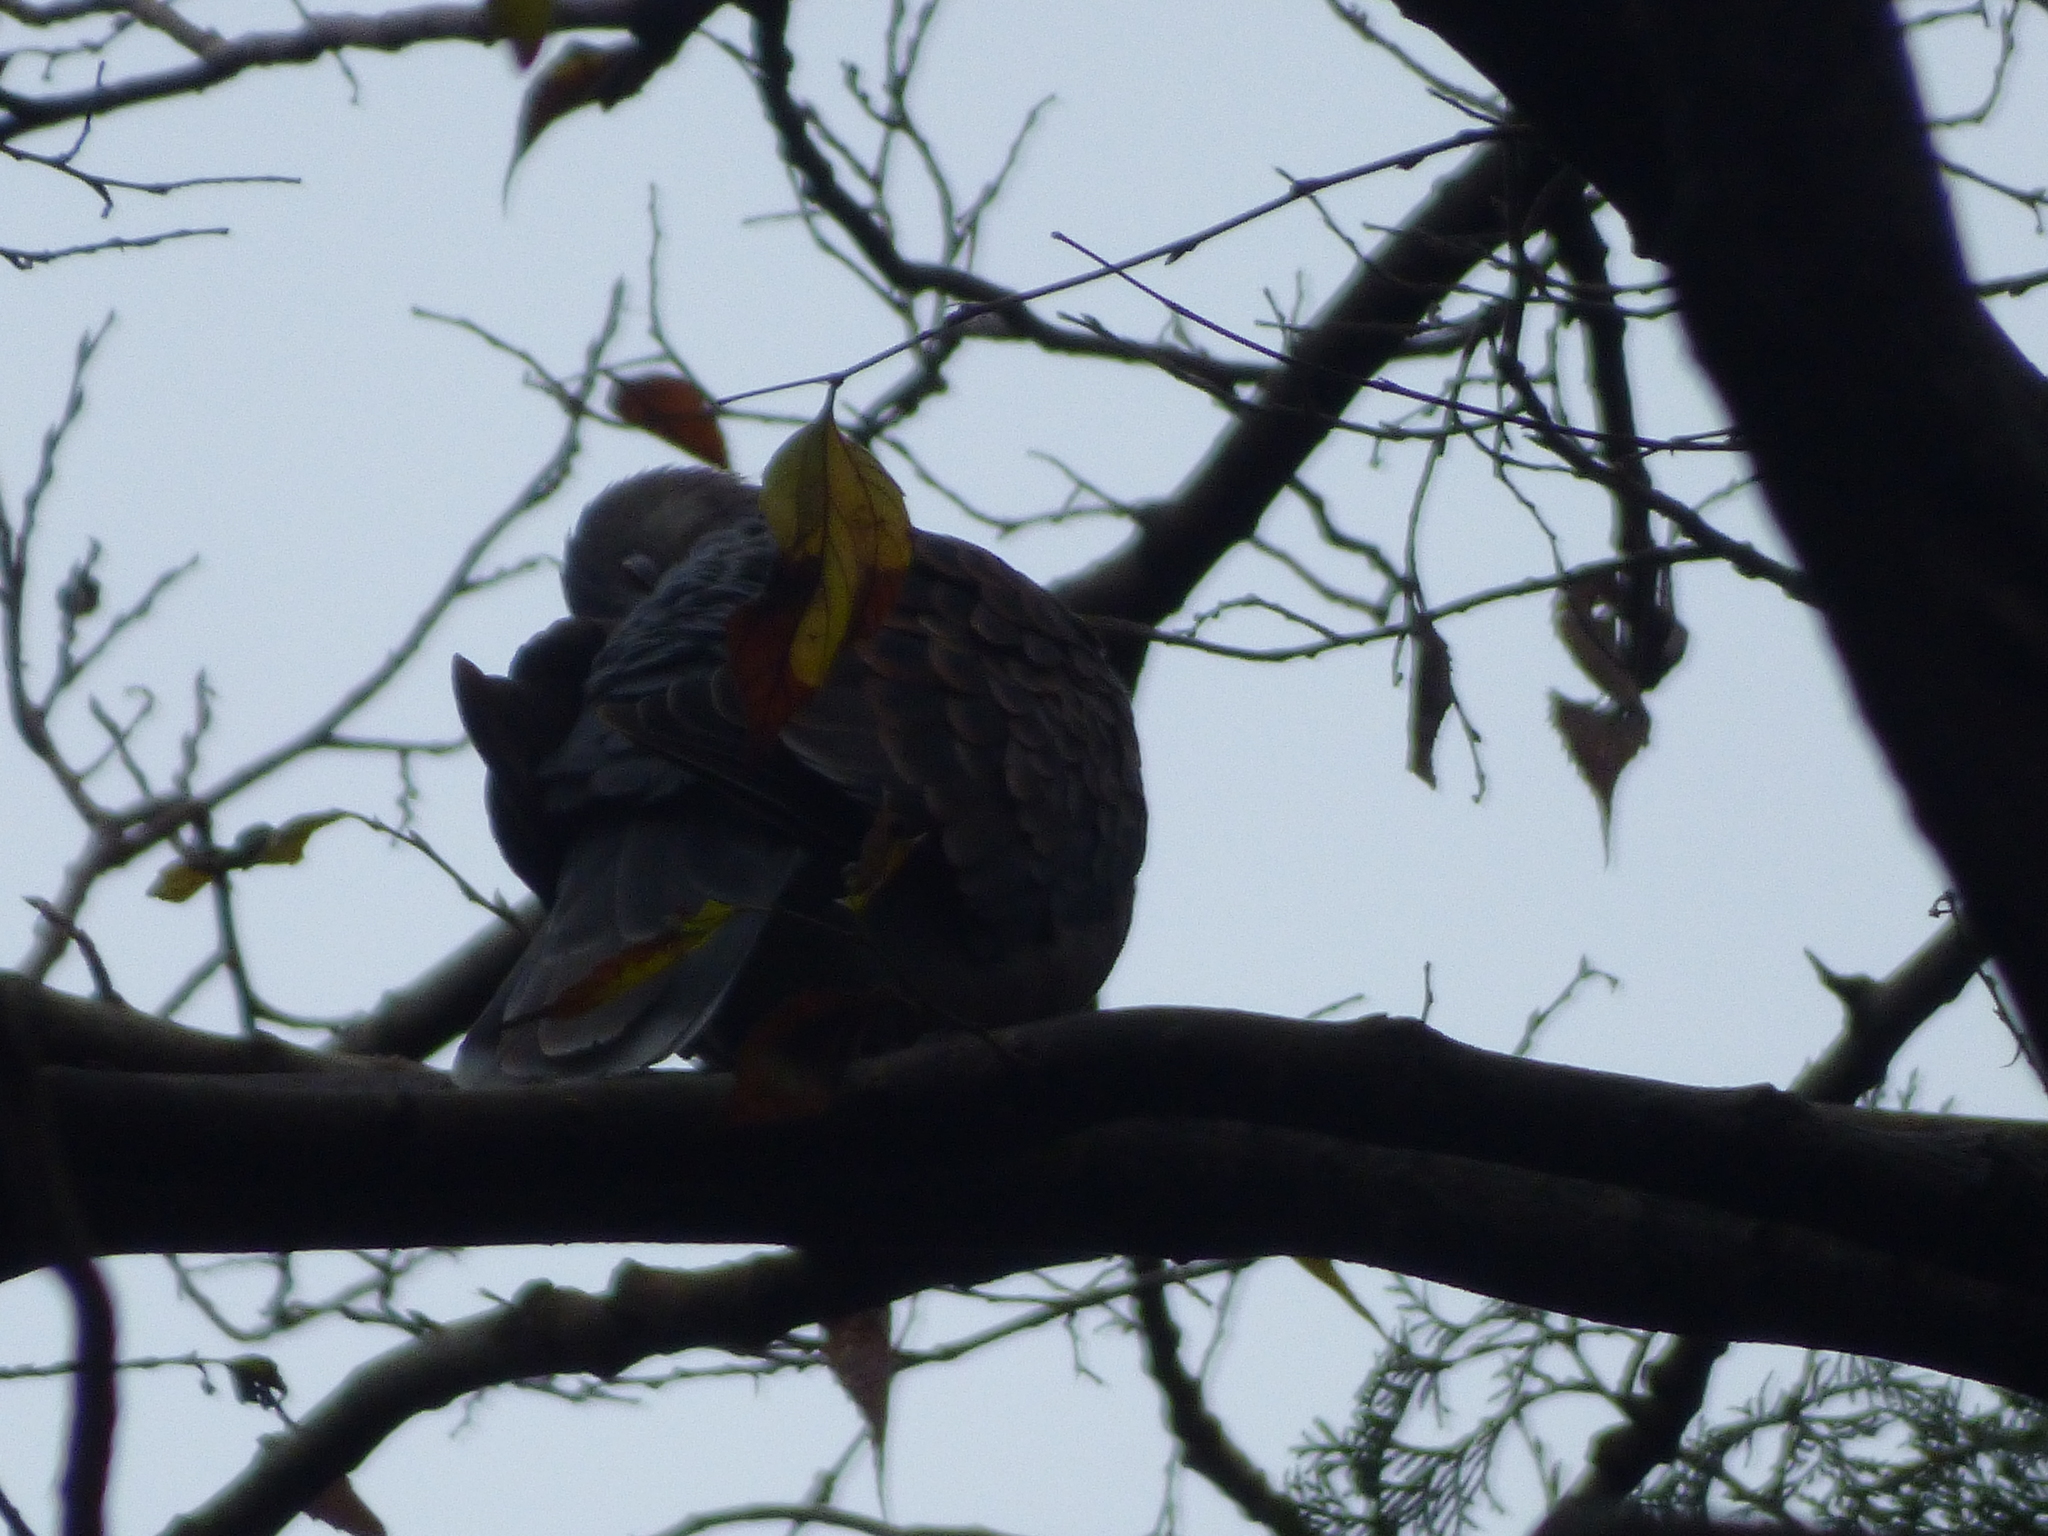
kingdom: Animalia
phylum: Chordata
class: Aves
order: Columbiformes
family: Columbidae
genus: Streptopelia
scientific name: Streptopelia orientalis
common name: Oriental turtle dove
